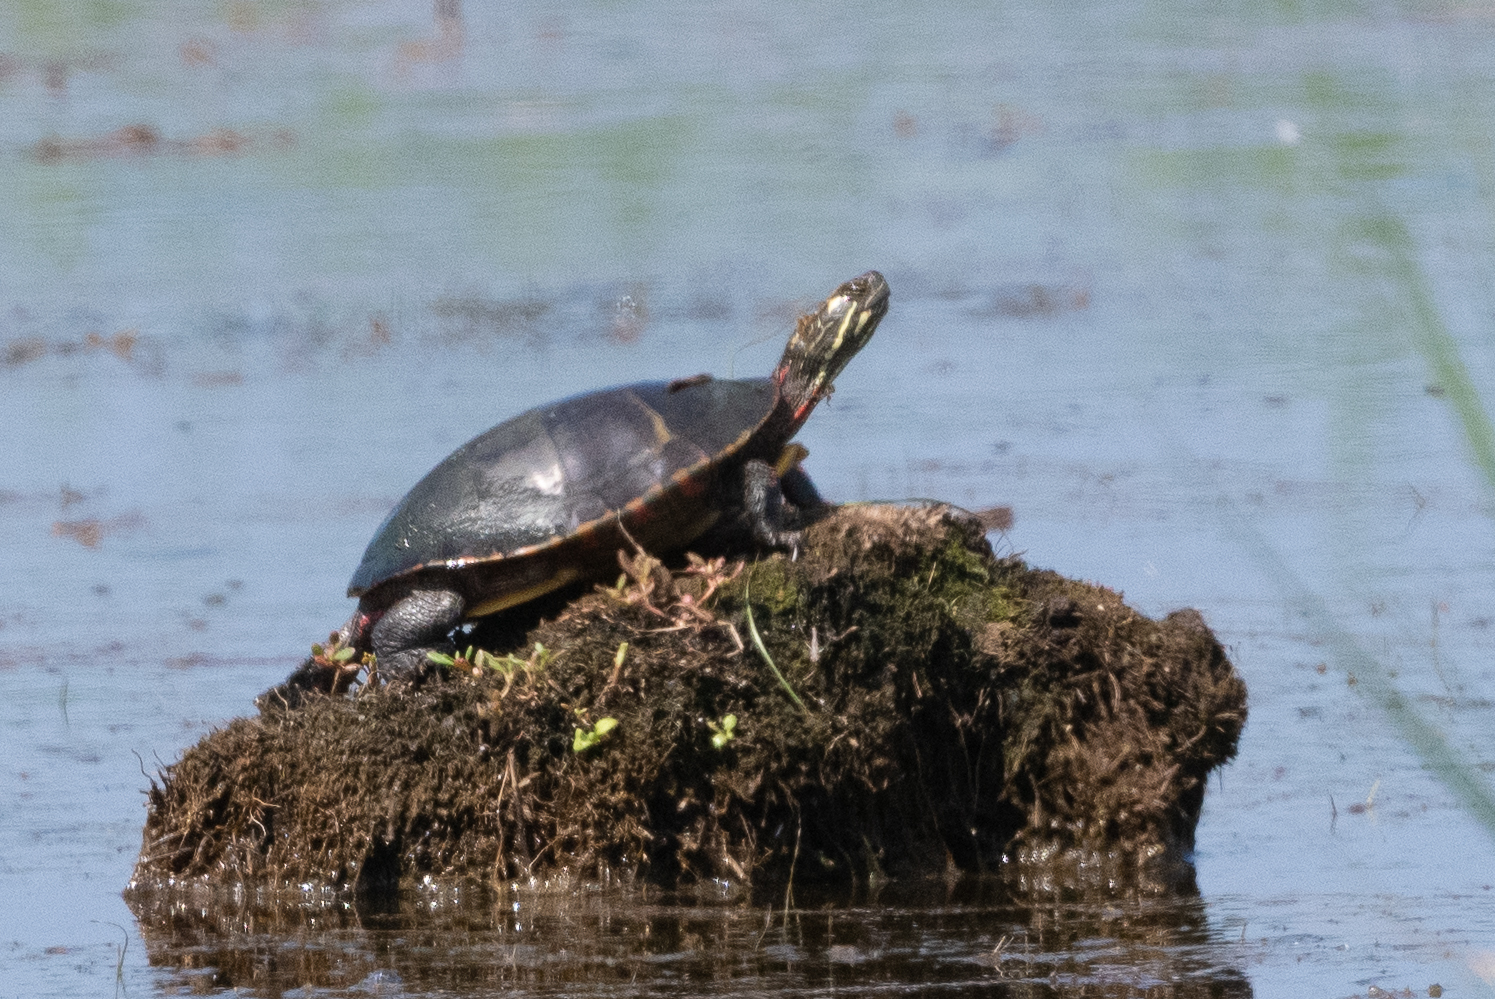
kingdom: Animalia
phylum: Chordata
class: Testudines
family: Emydidae
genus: Chrysemys
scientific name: Chrysemys picta
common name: Painted turtle
